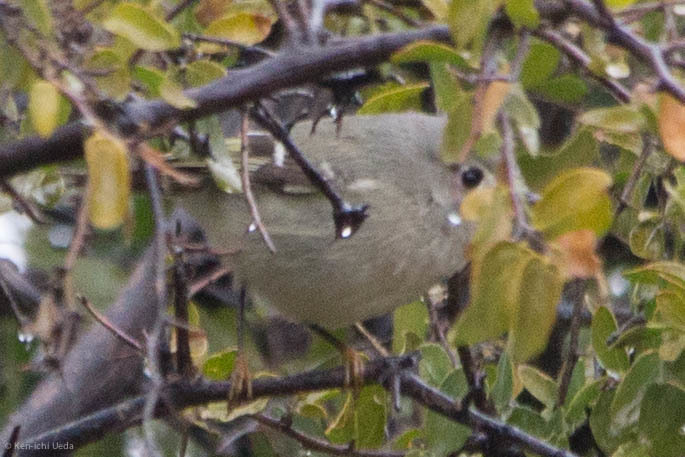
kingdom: Animalia
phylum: Chordata
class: Aves
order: Passeriformes
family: Regulidae
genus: Regulus
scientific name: Regulus calendula
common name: Ruby-crowned kinglet
